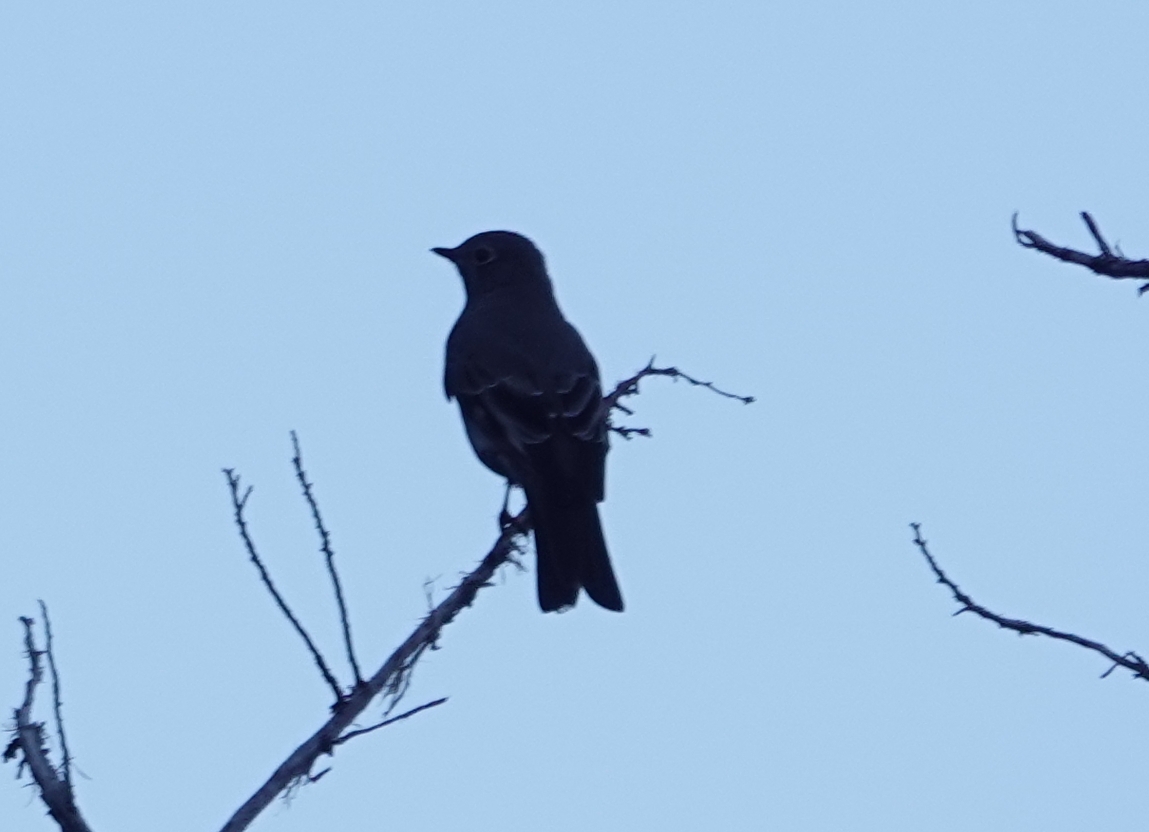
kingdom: Animalia
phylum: Chordata
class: Aves
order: Passeriformes
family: Turdidae
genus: Myadestes
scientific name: Myadestes townsendi
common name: Townsend's solitaire
